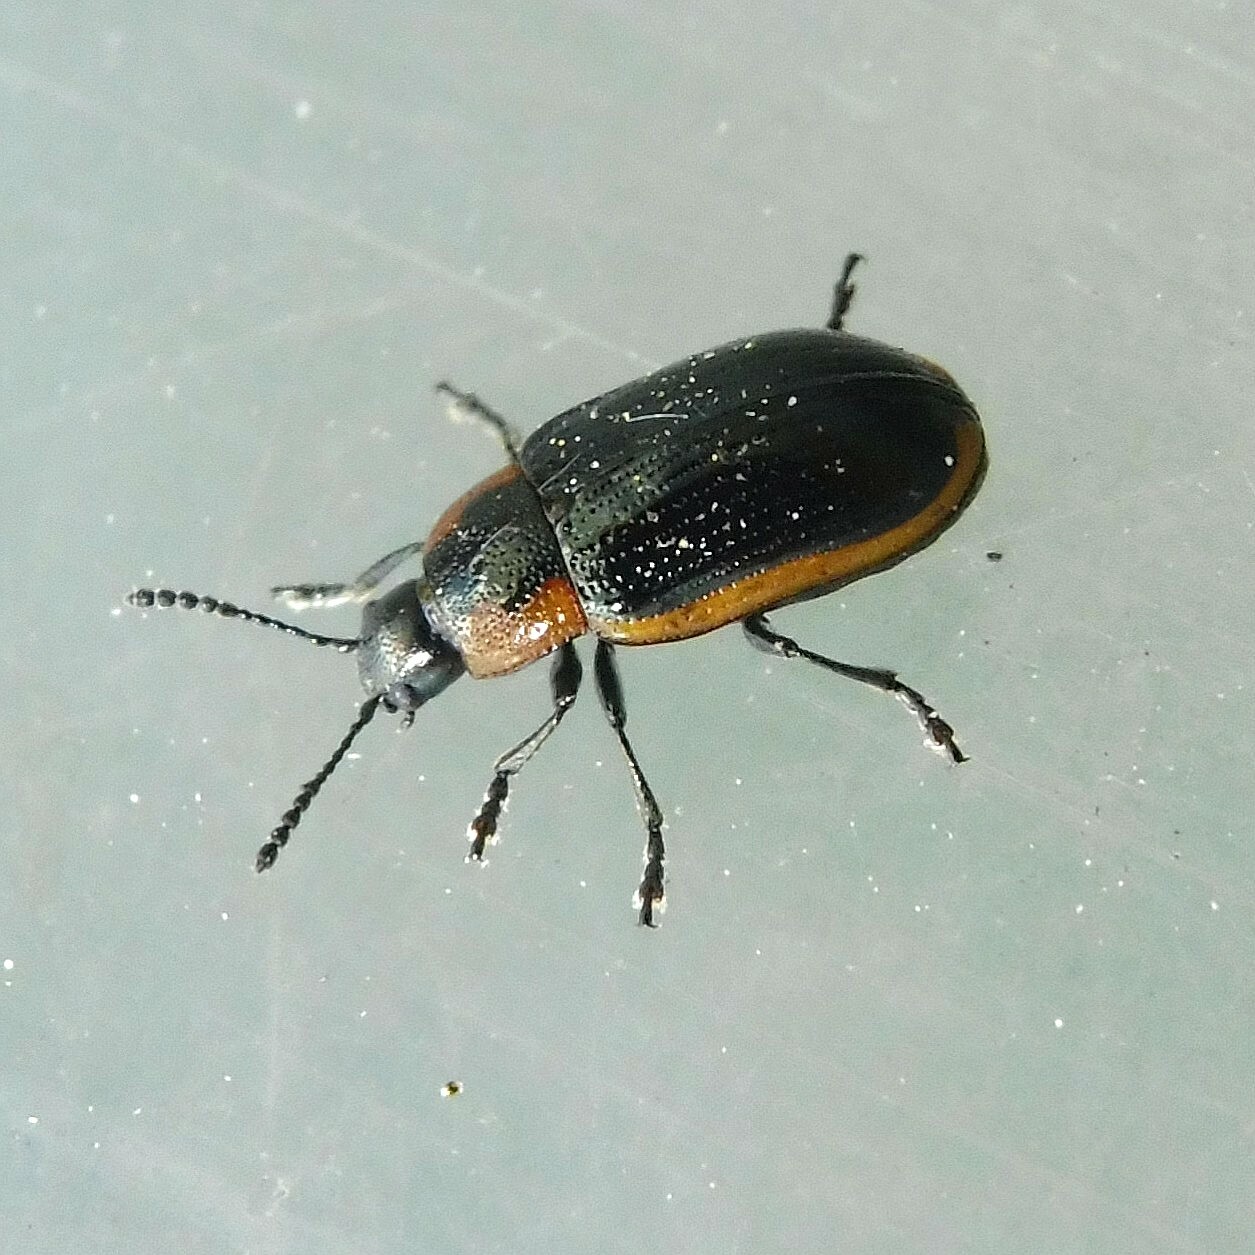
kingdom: Animalia
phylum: Arthropoda
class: Insecta
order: Coleoptera
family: Chrysomelidae
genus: Prasocuris
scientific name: Prasocuris marginella
